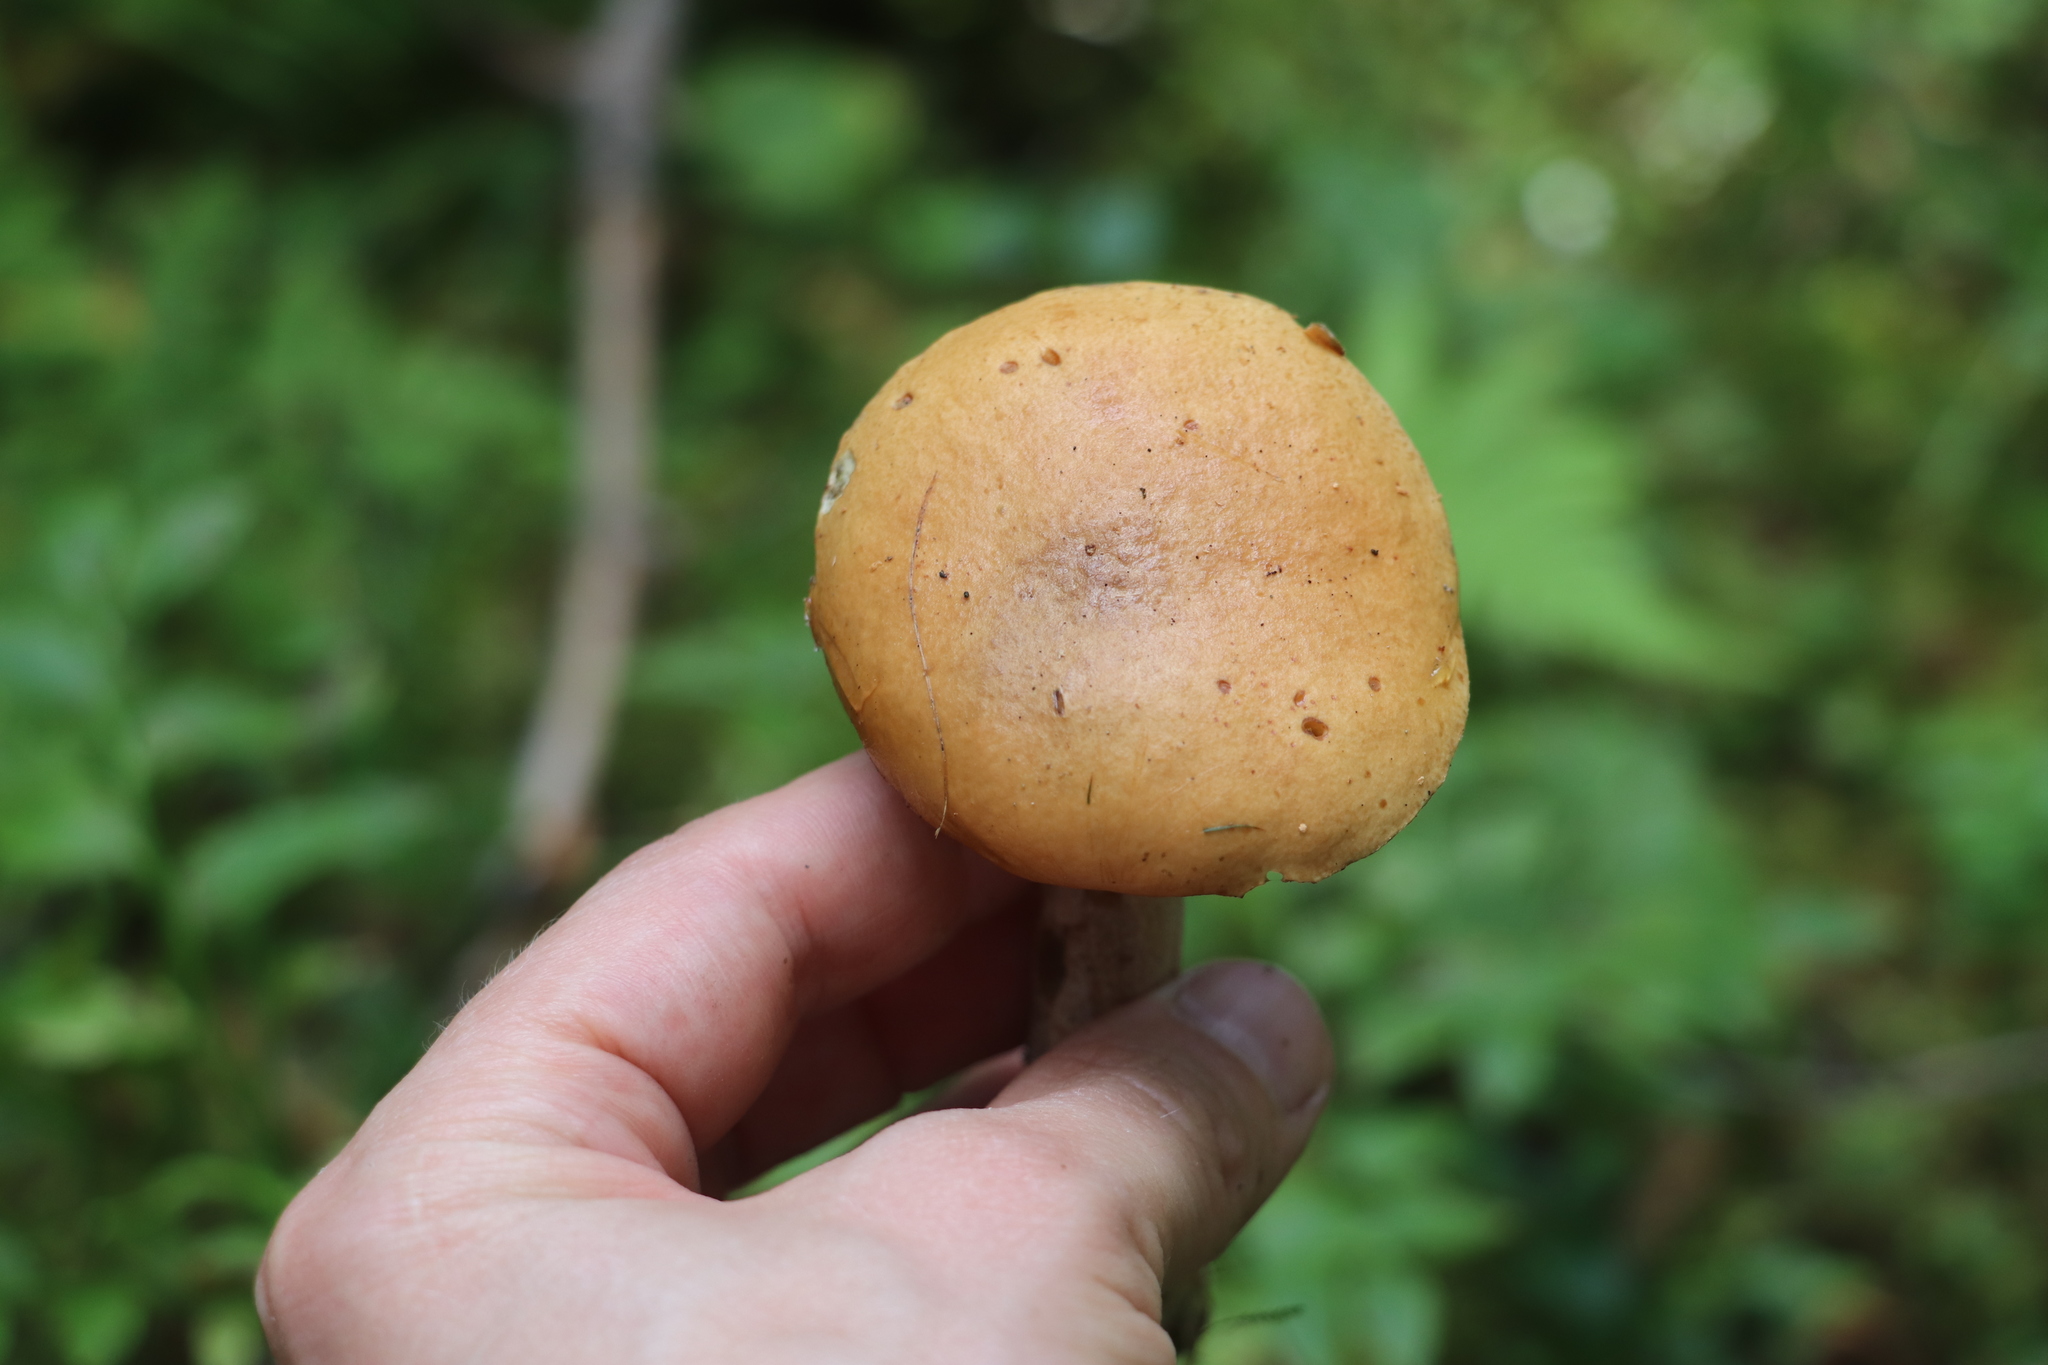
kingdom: Fungi
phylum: Basidiomycota
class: Agaricomycetes
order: Boletales
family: Suillaceae
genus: Suillus
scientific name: Suillus variegatus
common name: Velvet bolete
